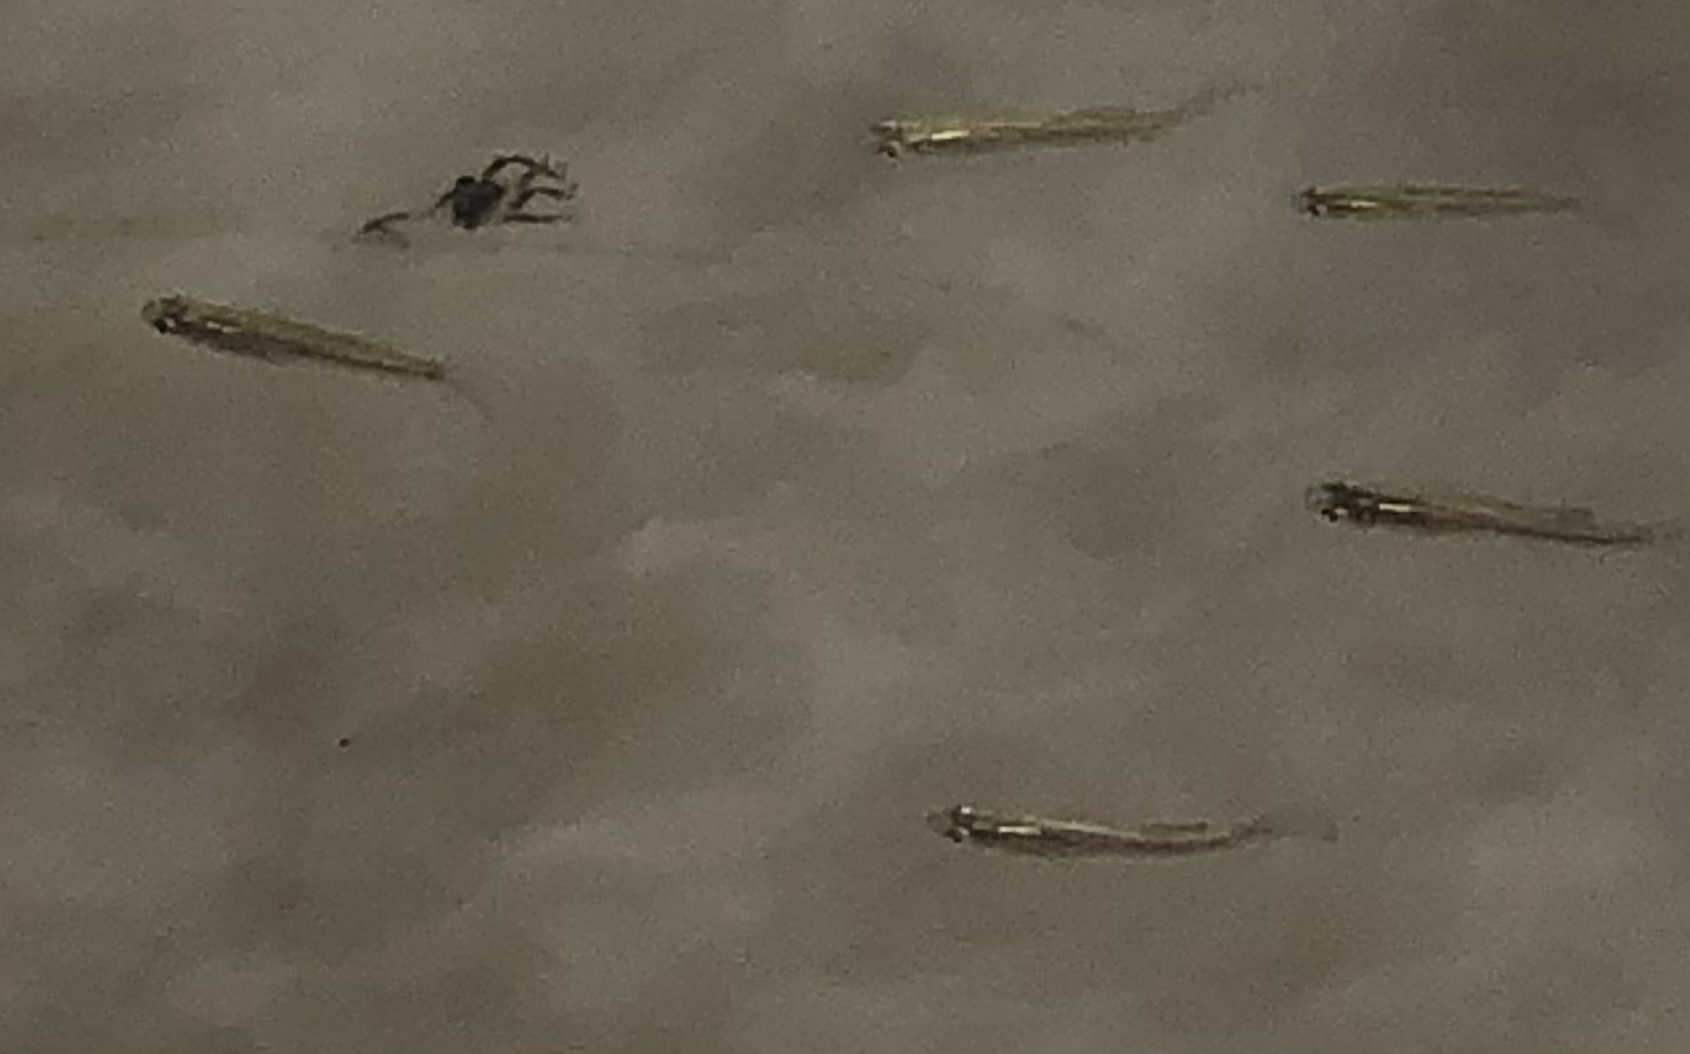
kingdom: Animalia
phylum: Chordata
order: Cyprinodontiformes
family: Poeciliidae
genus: Gambusia
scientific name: Gambusia affinis
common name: Mosquitofish
